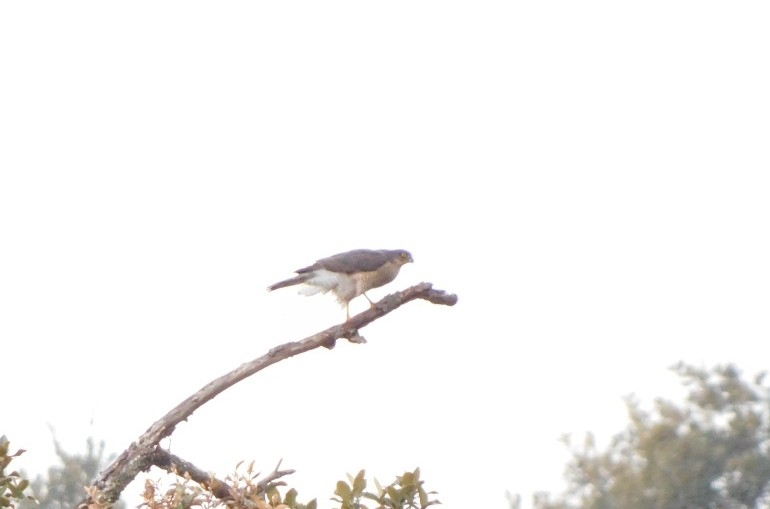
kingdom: Animalia
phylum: Chordata
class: Aves
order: Accipitriformes
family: Accipitridae
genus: Accipiter
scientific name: Accipiter badius
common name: Shikra
